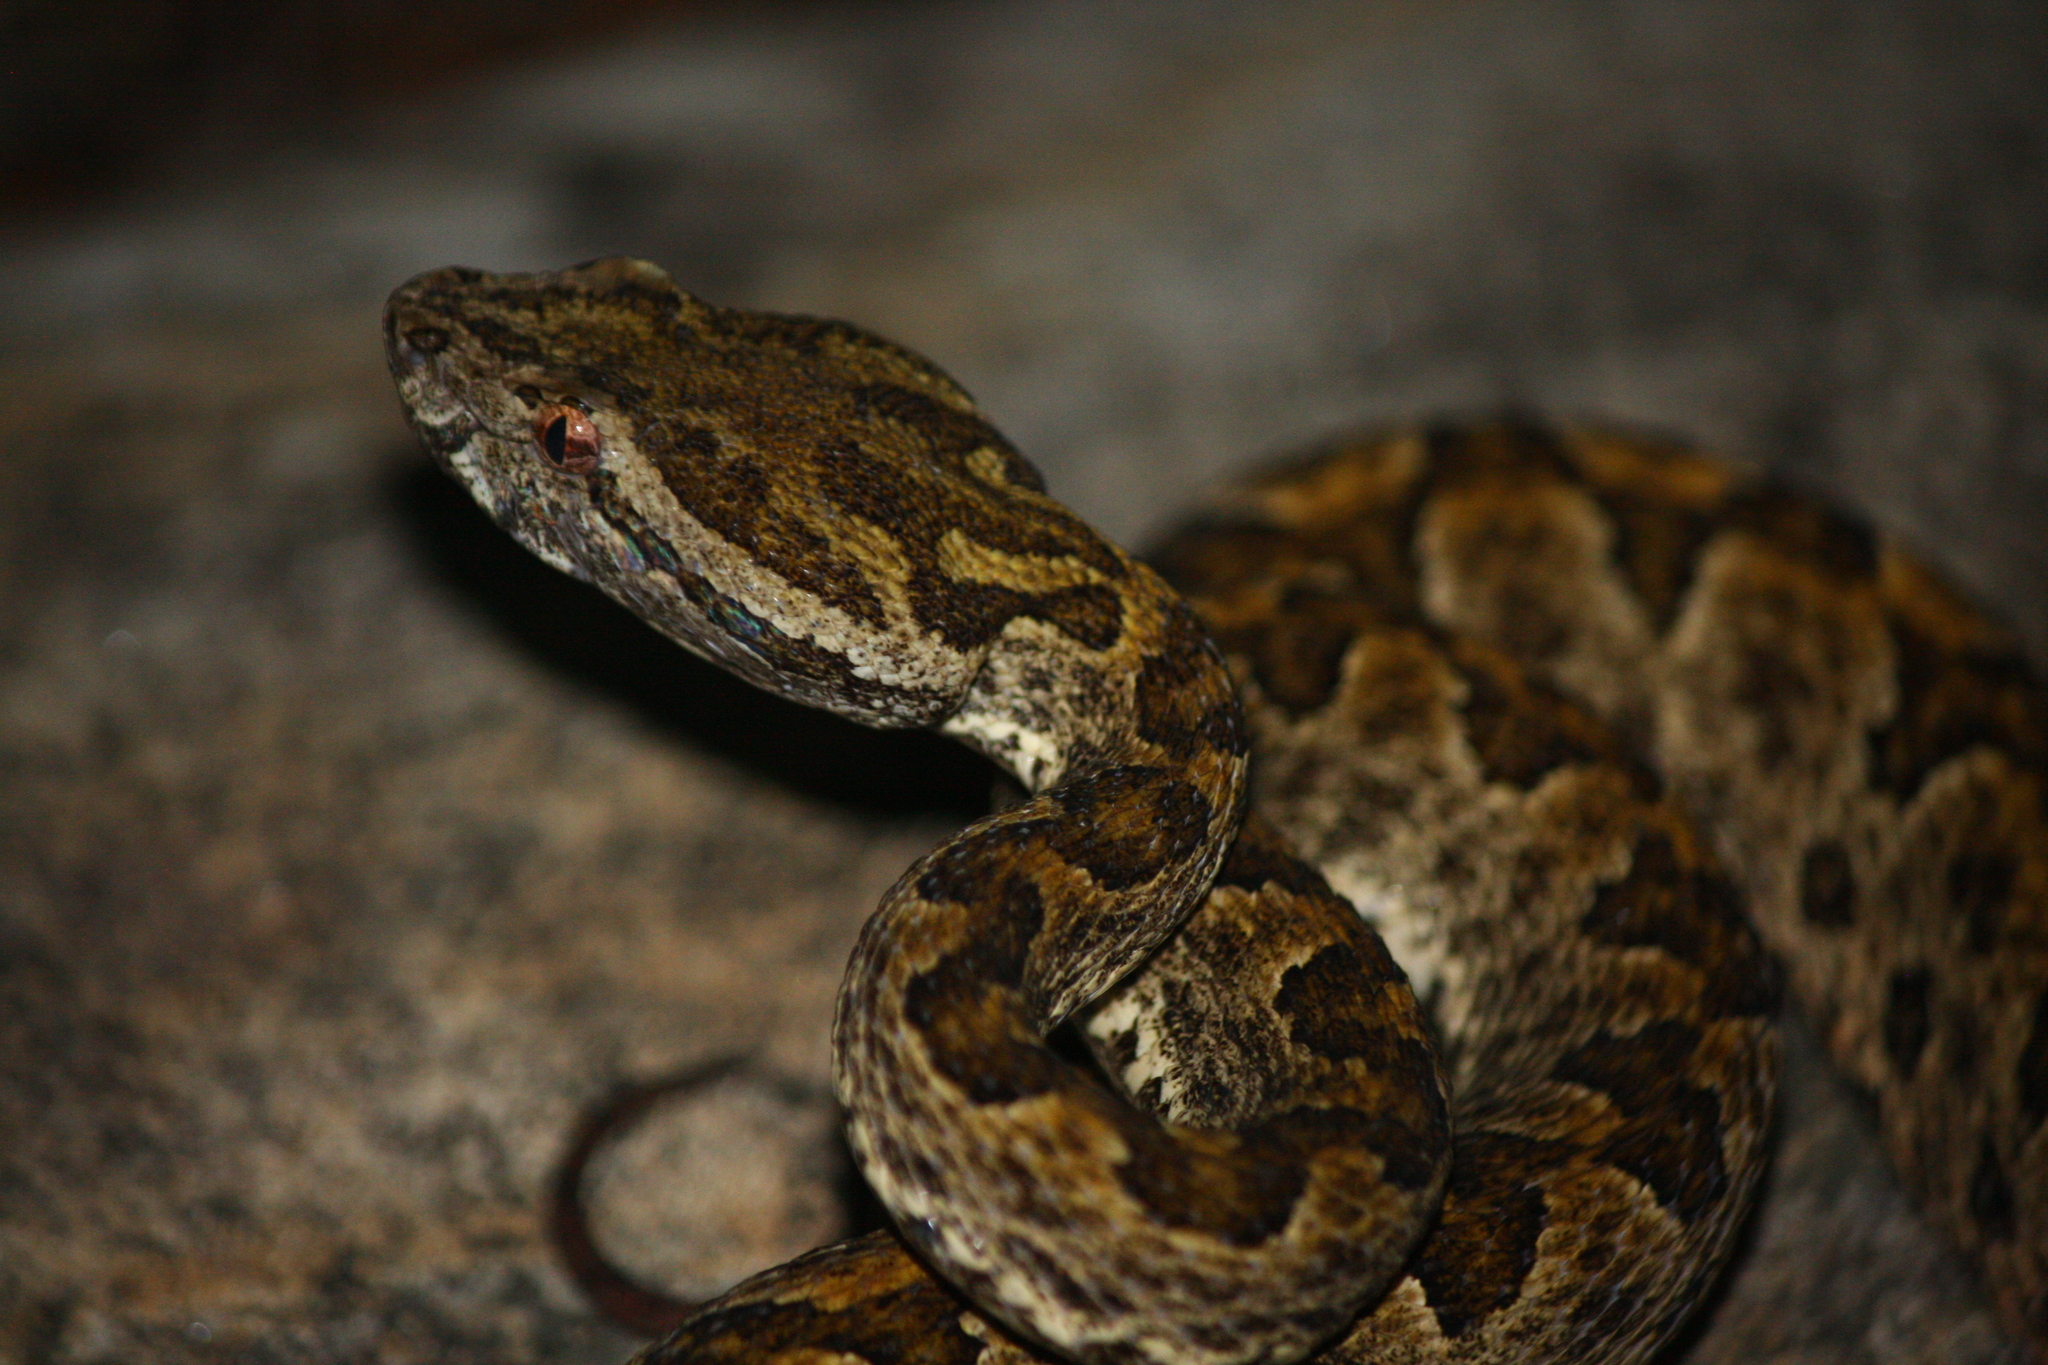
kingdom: Animalia
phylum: Chordata
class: Squamata
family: Viperidae
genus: Protobothrops
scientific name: Protobothrops elegans
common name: Elegant pitviper
